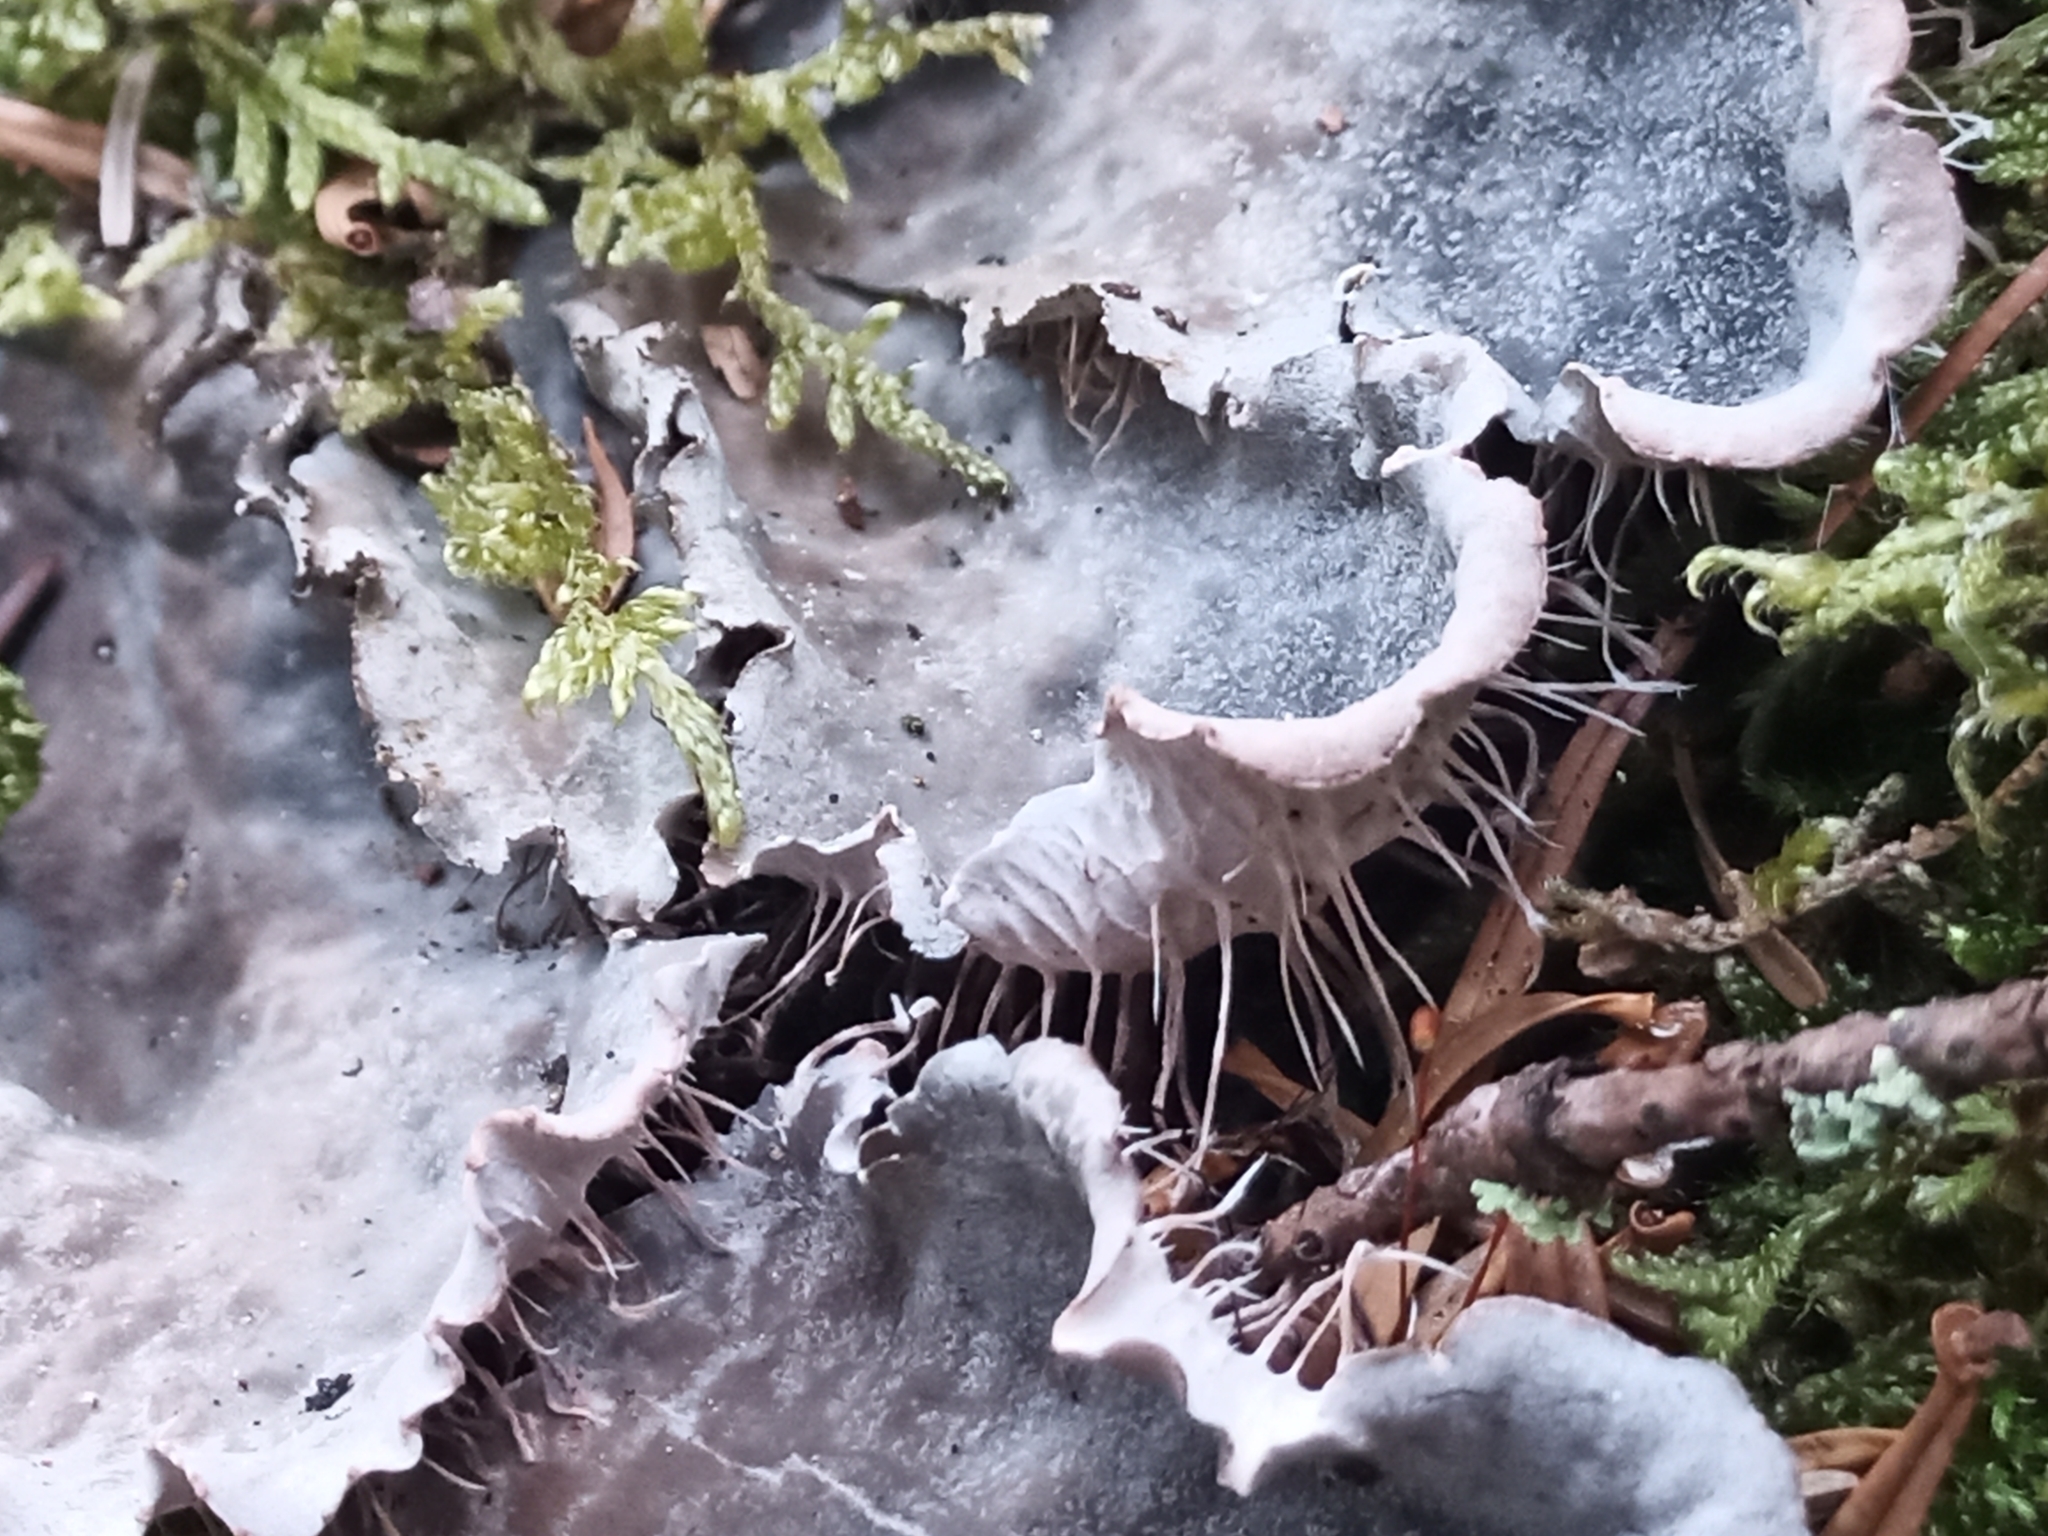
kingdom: Fungi
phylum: Ascomycota
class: Lecanoromycetes
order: Peltigerales
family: Peltigeraceae
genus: Peltigera
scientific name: Peltigera praetextata
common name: Scaly dog-lichen
